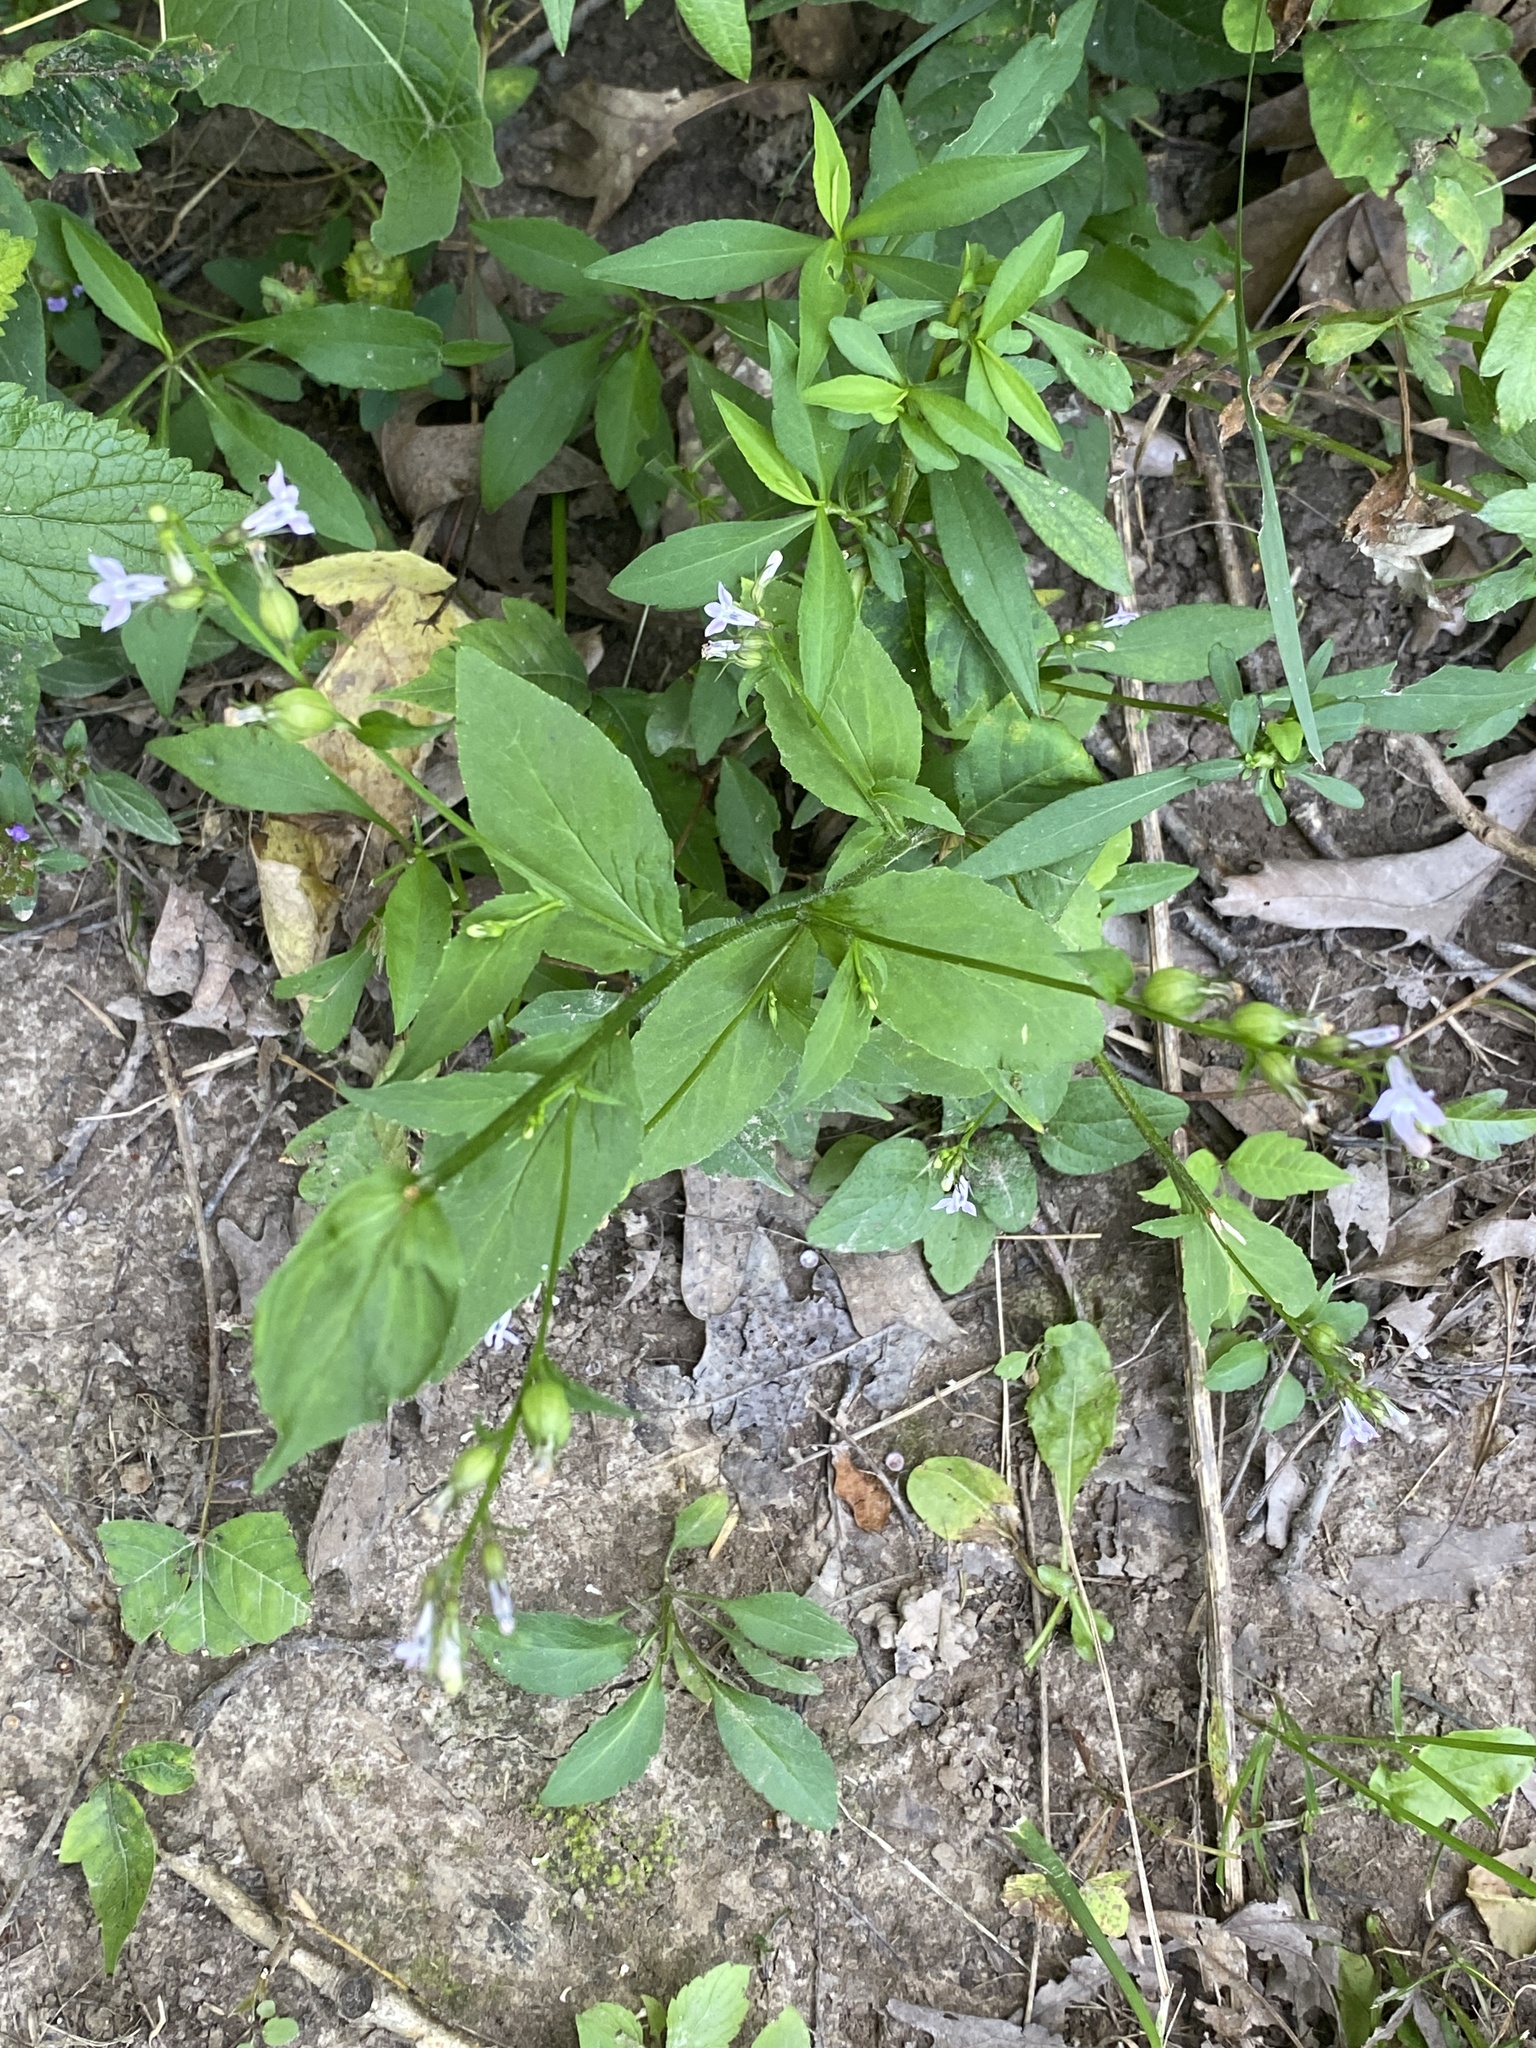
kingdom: Plantae
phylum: Tracheophyta
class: Magnoliopsida
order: Asterales
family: Campanulaceae
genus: Lobelia
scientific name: Lobelia inflata
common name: Indian tobacco
